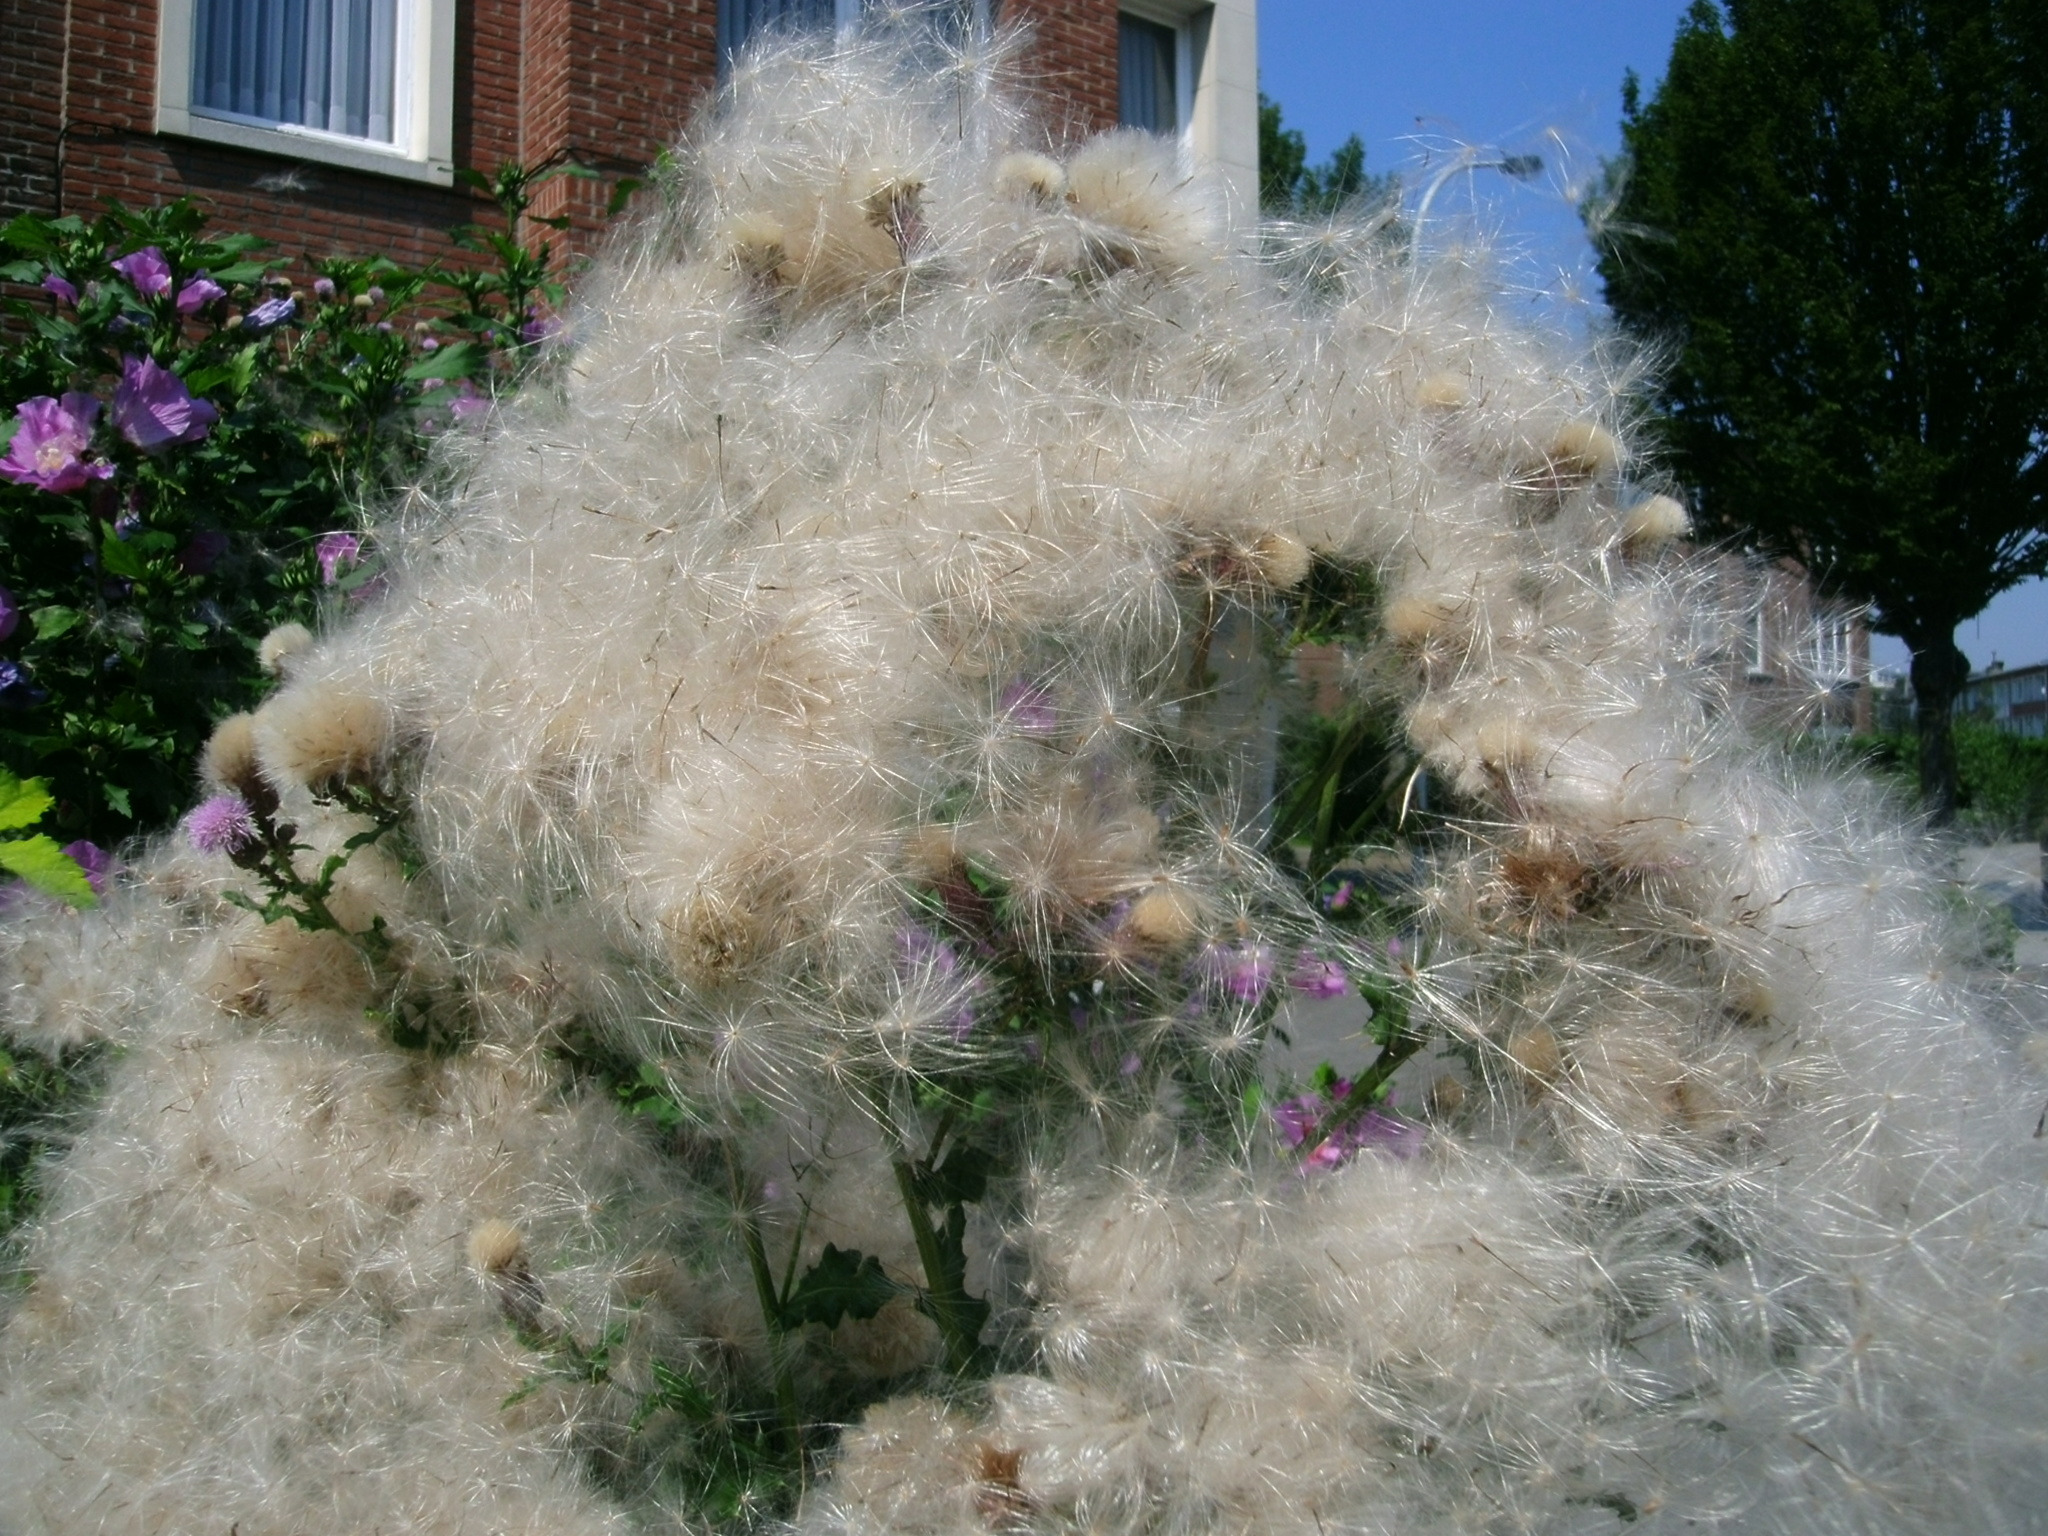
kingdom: Plantae
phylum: Tracheophyta
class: Magnoliopsida
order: Asterales
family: Asteraceae
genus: Cirsium
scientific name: Cirsium arvense
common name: Creeping thistle
